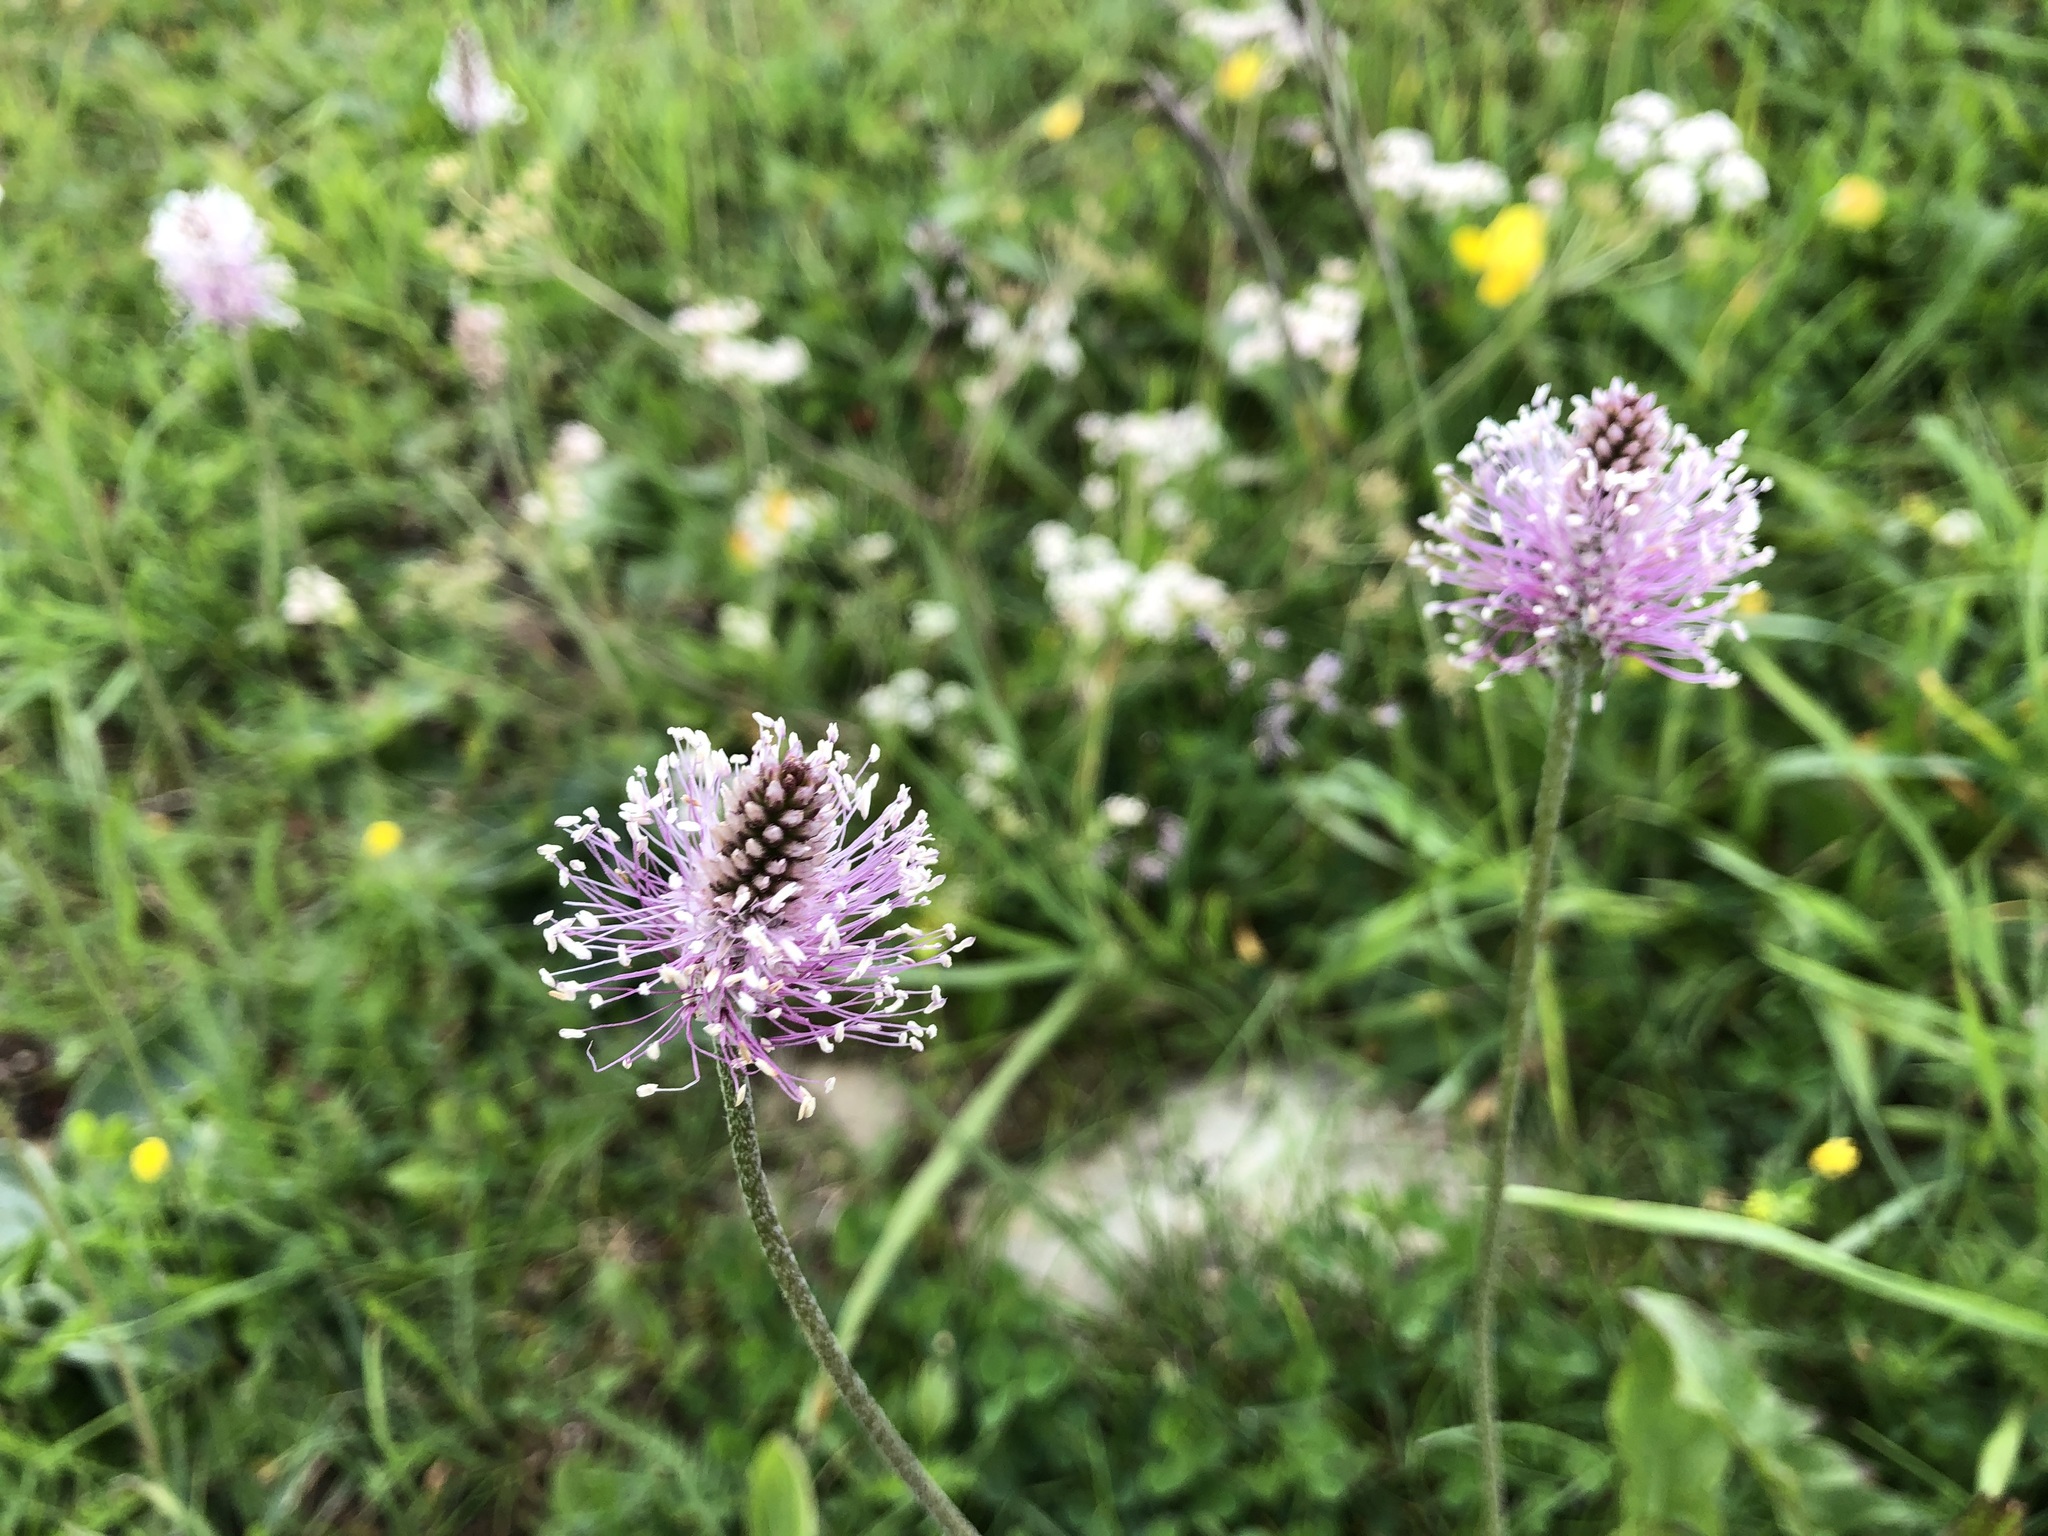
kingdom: Plantae
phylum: Tracheophyta
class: Magnoliopsida
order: Lamiales
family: Plantaginaceae
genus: Plantago
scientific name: Plantago media
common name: Hoary plantain
